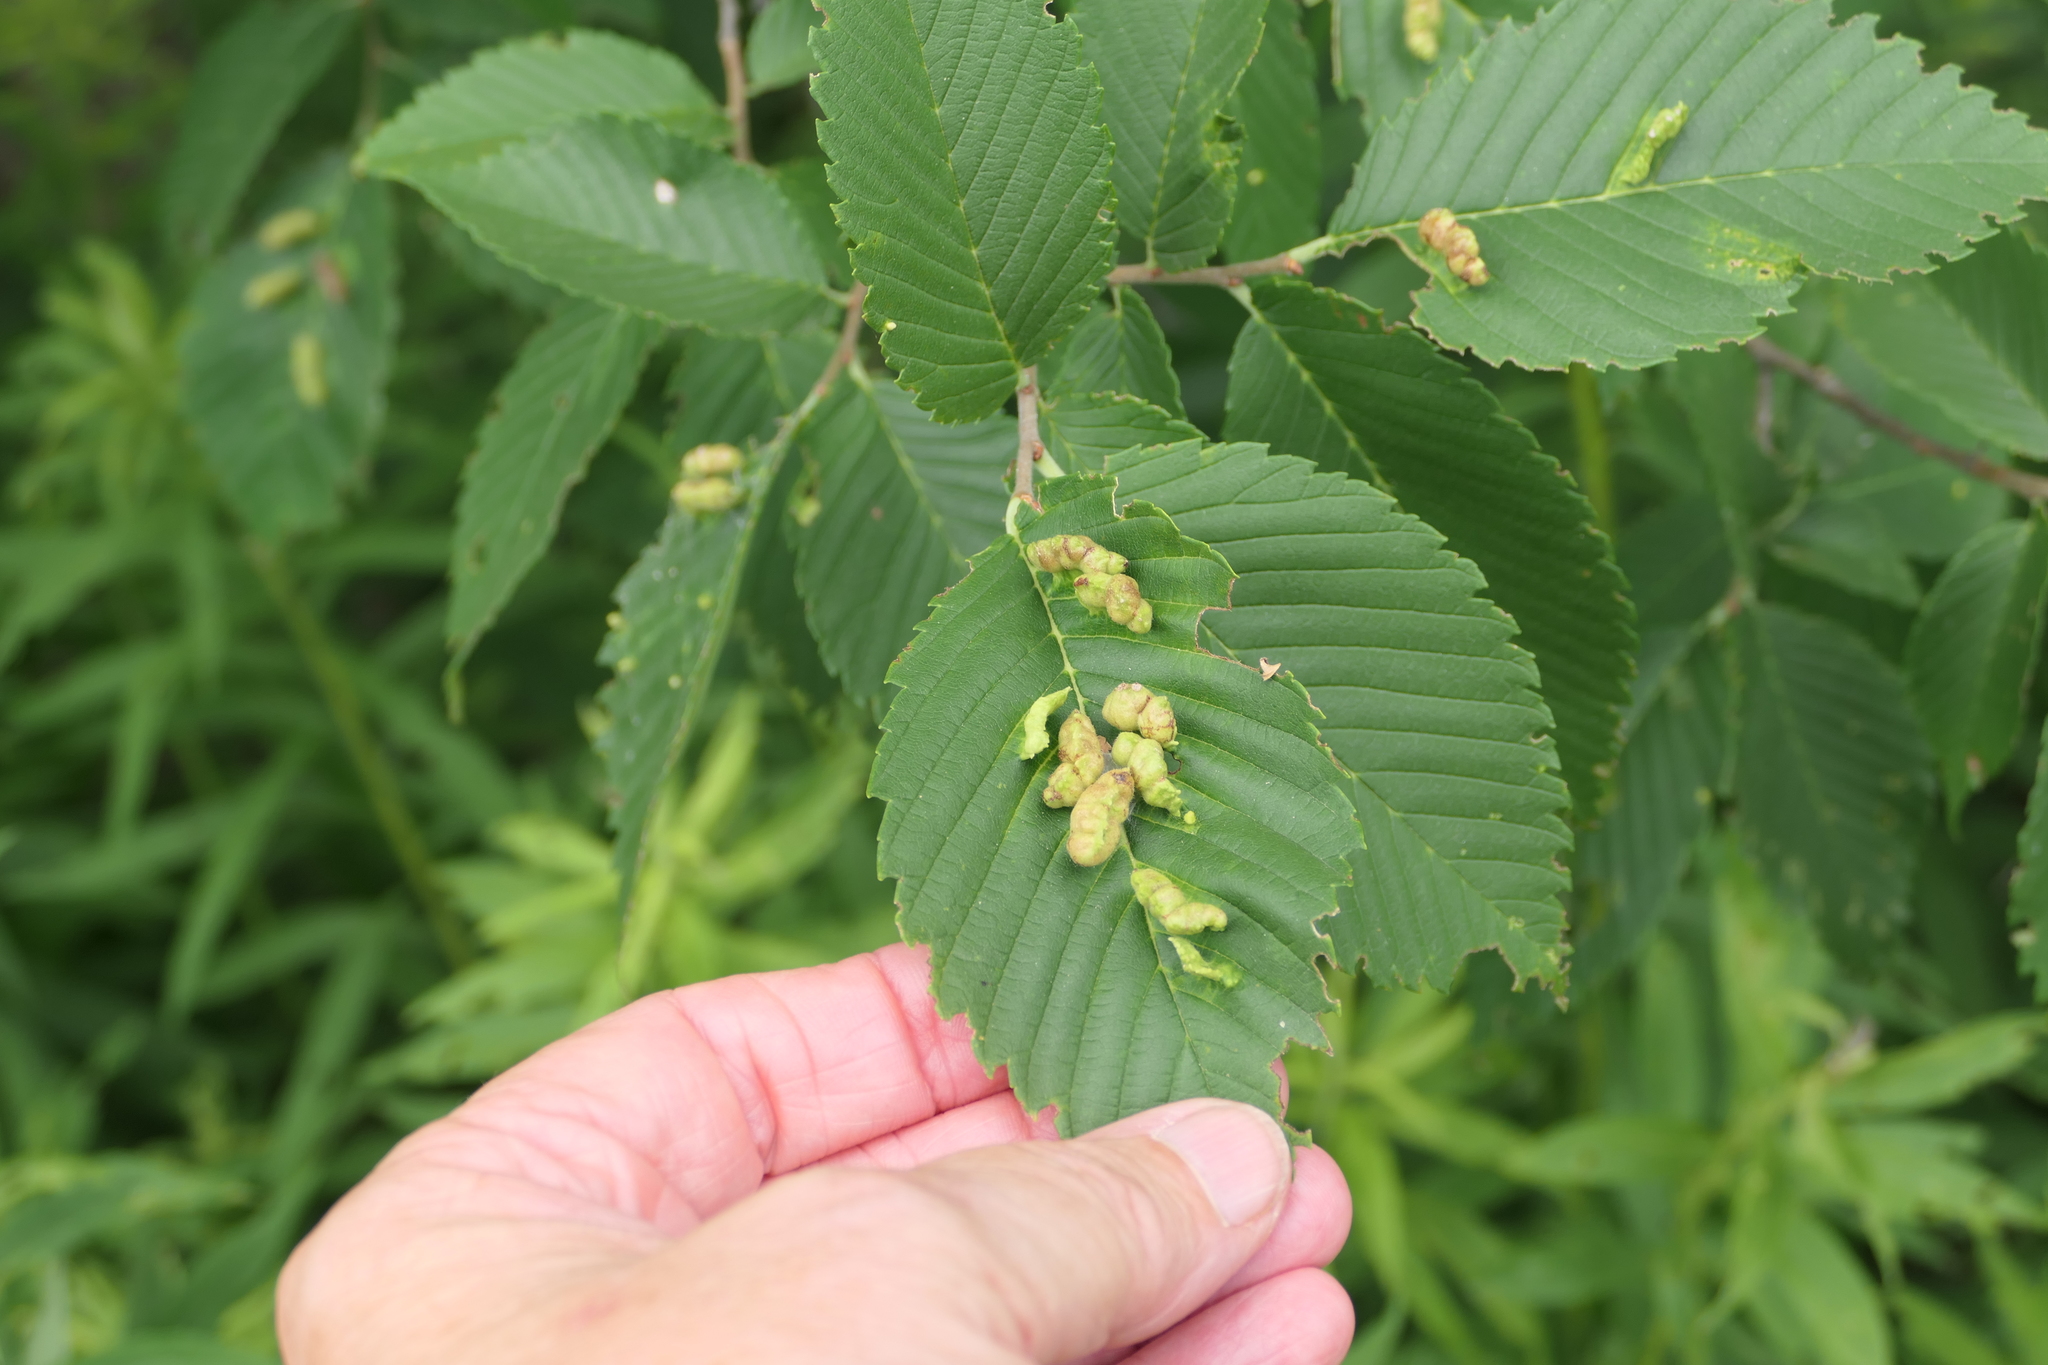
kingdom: Animalia
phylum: Arthropoda
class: Insecta
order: Hemiptera
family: Aphididae
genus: Colopha
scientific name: Colopha ulmicola
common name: Elm cockscombgall aphid
